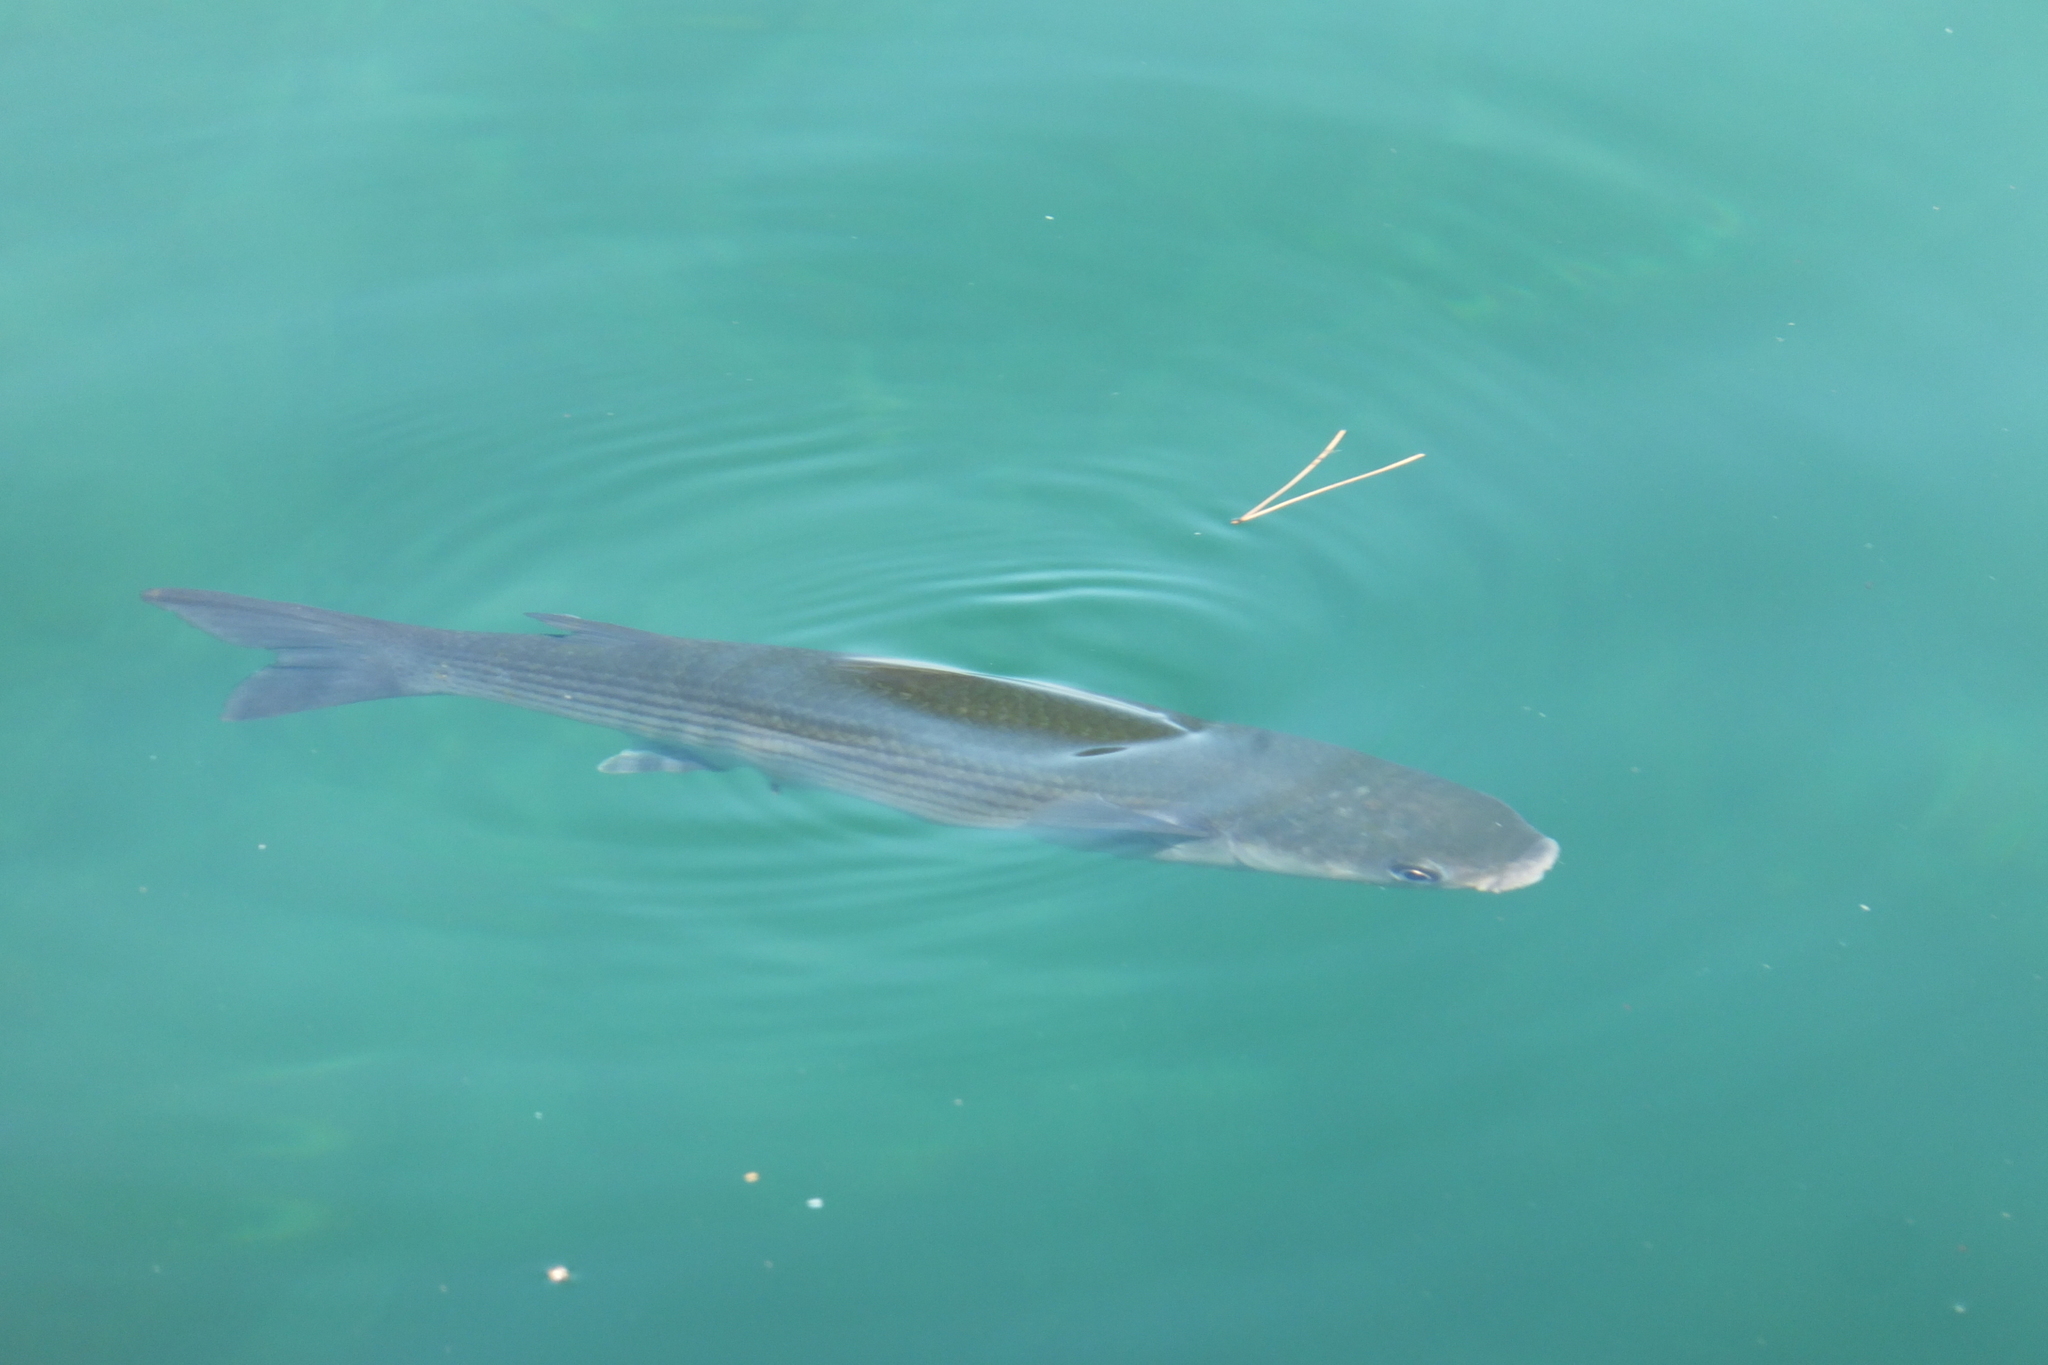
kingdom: Animalia
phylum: Chordata
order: Mugiliformes
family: Mugilidae
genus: Chelon
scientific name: Chelon labrosus
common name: Thick-lipped mullet
